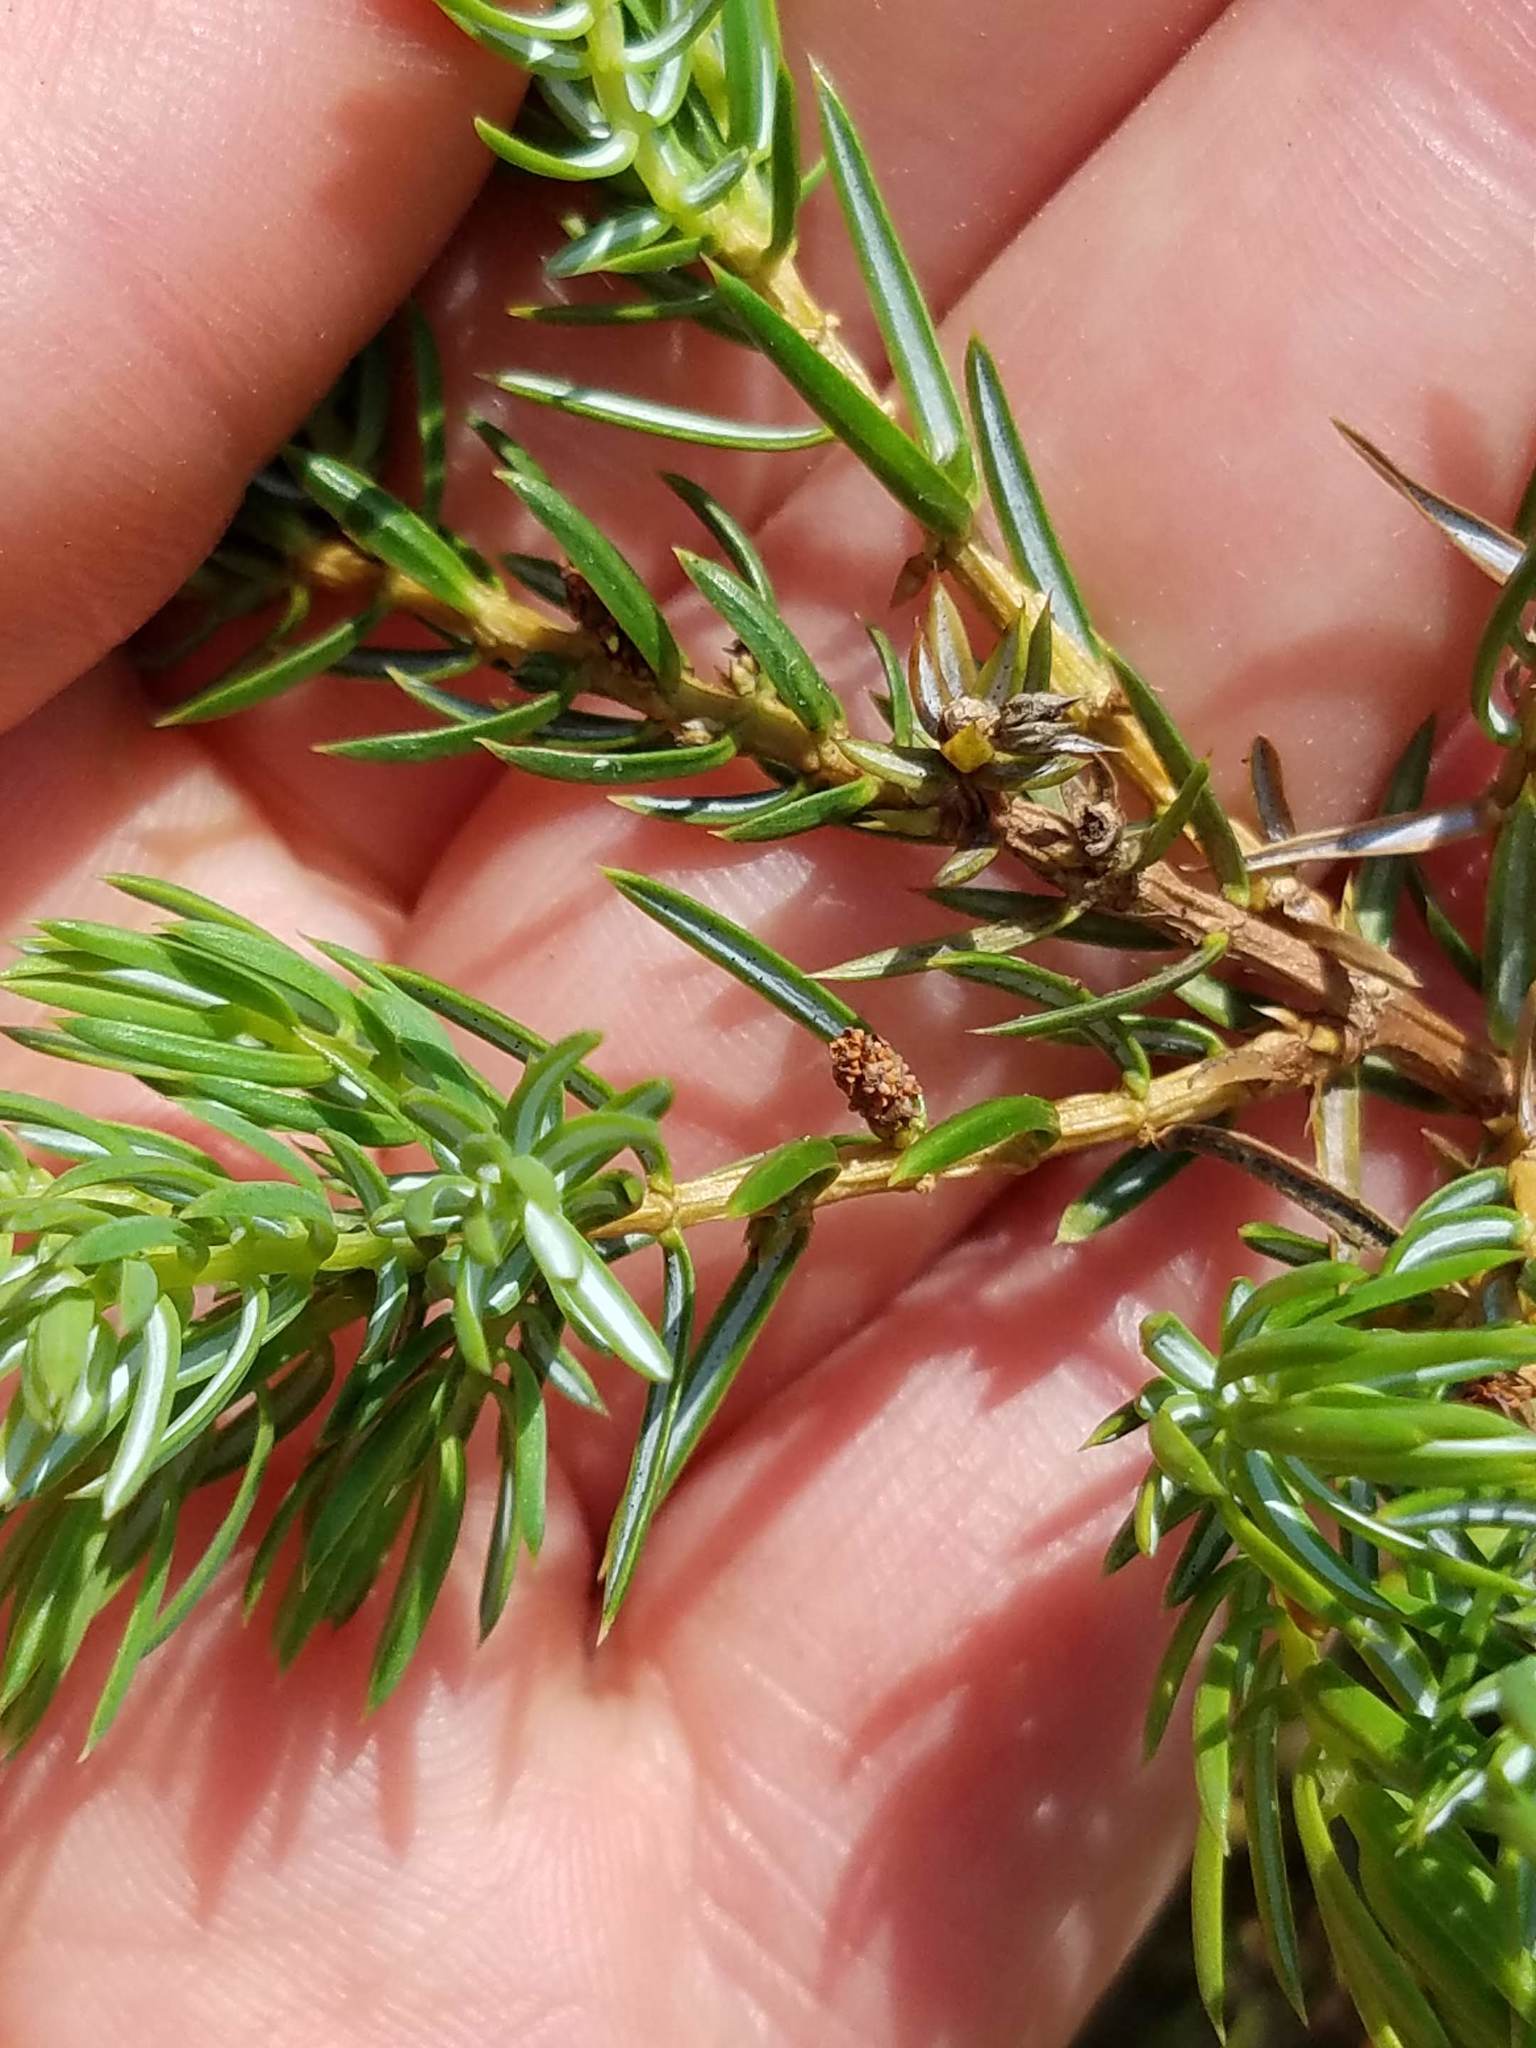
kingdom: Plantae
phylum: Tracheophyta
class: Pinopsida
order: Pinales
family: Cupressaceae
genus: Juniperus
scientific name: Juniperus communis
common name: Common juniper
